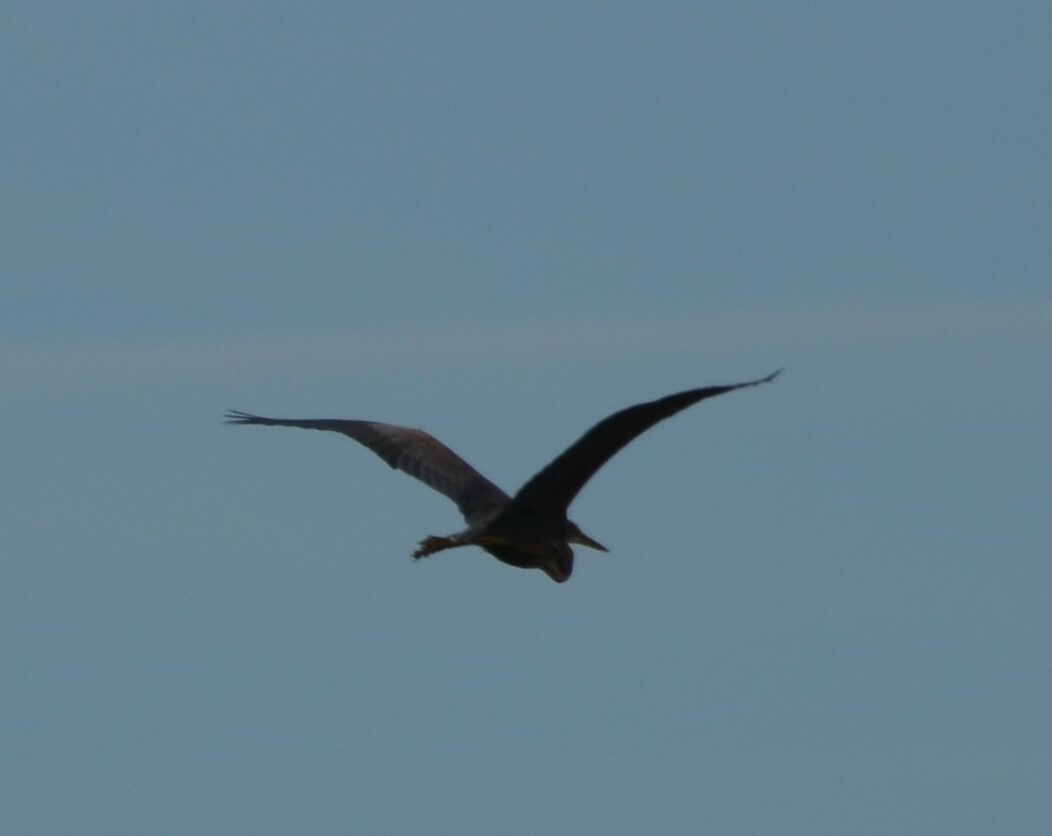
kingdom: Animalia
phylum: Chordata
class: Aves
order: Pelecaniformes
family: Ardeidae
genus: Ardea
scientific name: Ardea purpurea
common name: Purple heron
